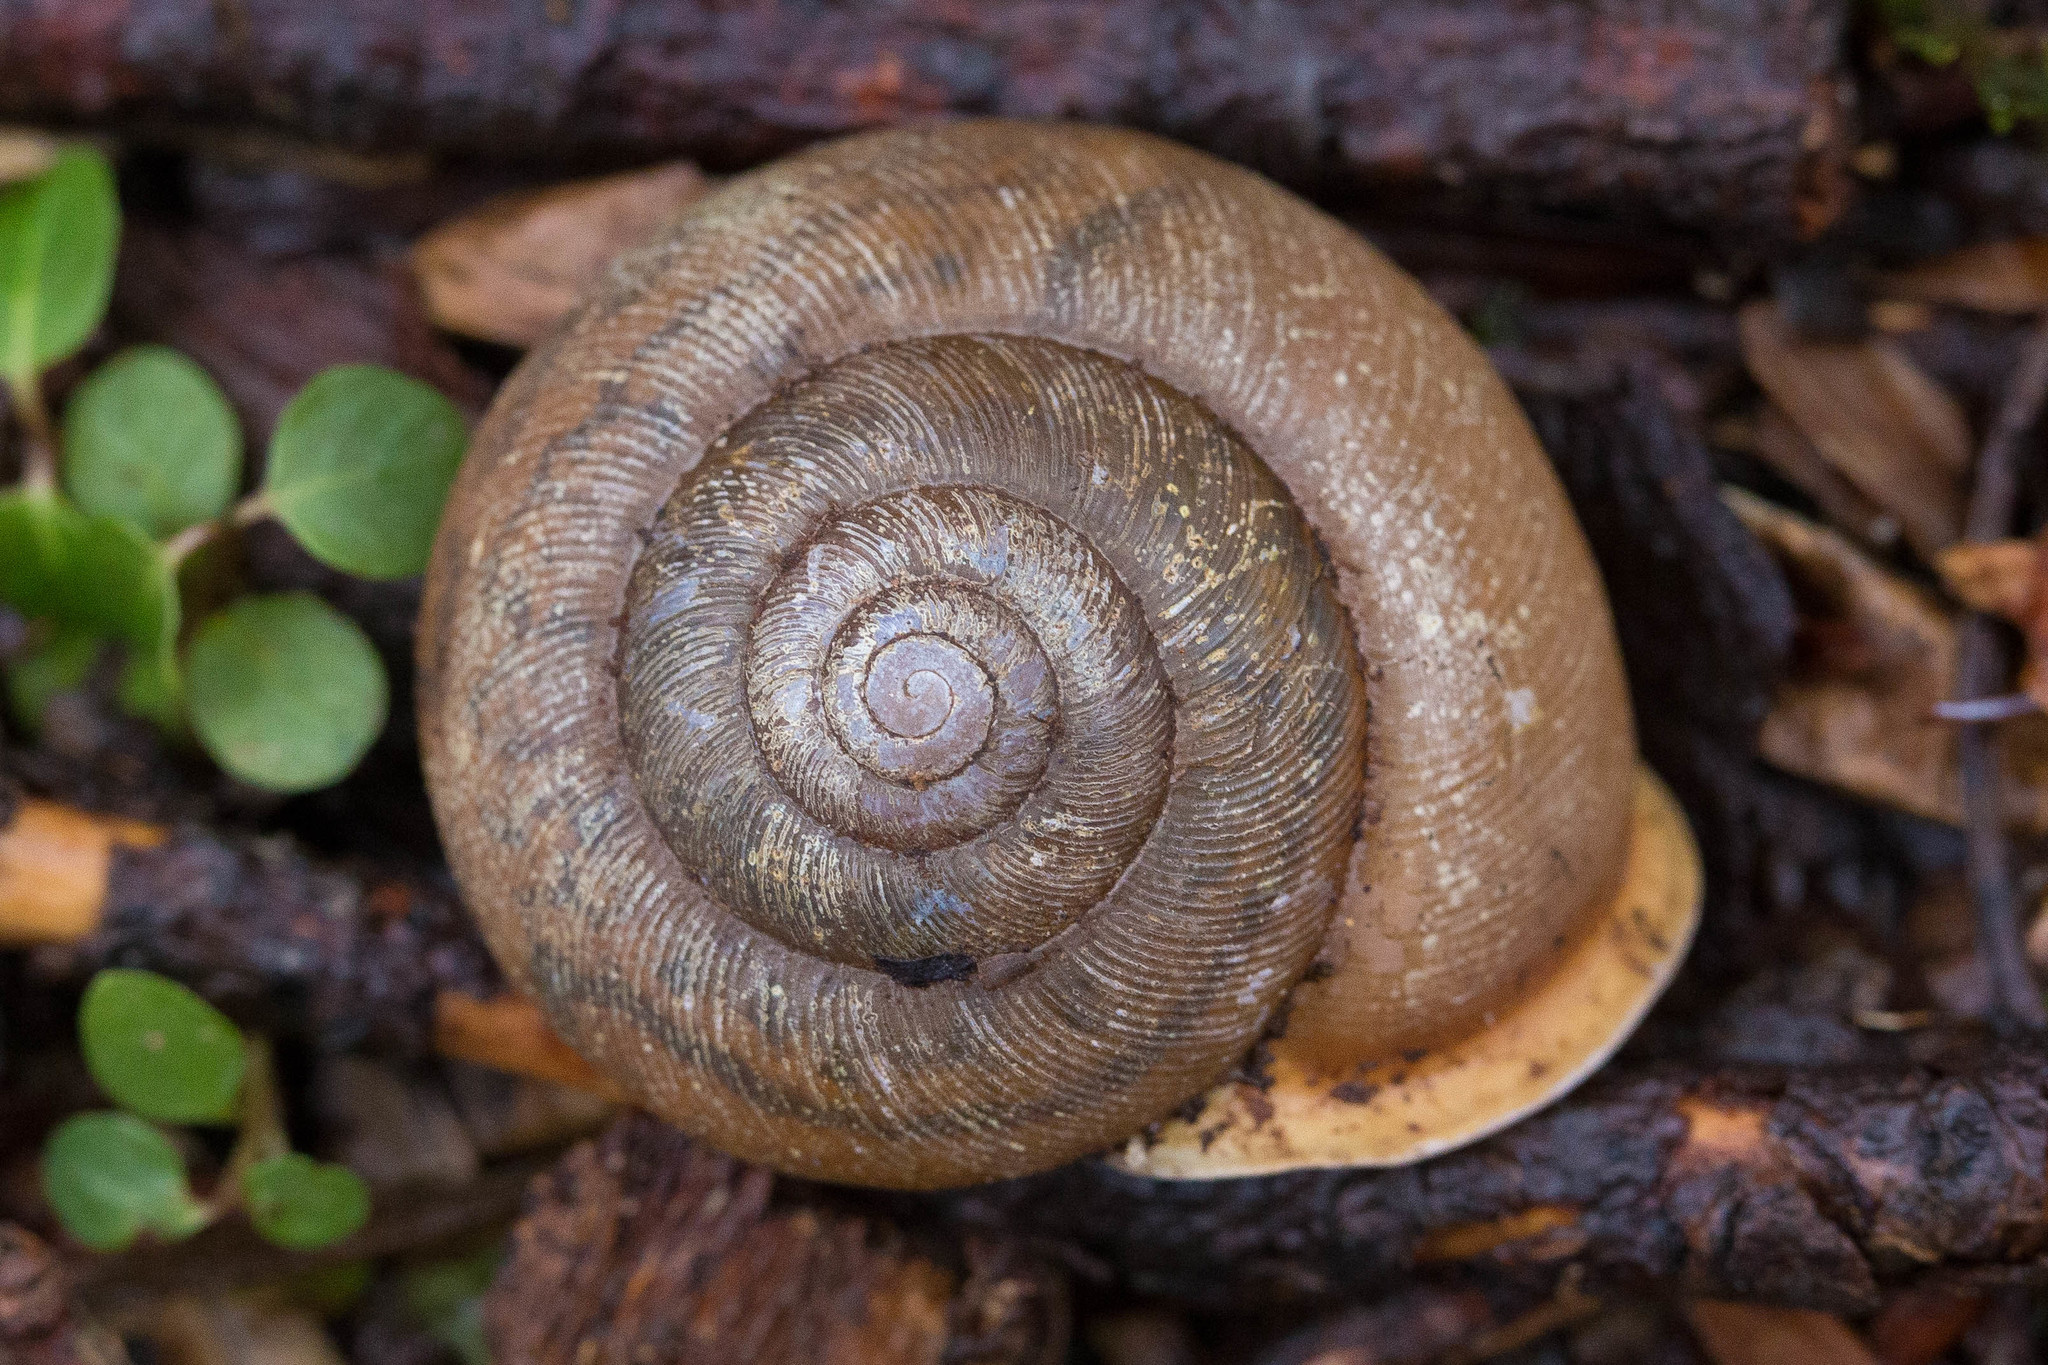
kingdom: Animalia
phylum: Mollusca
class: Gastropoda
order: Stylommatophora
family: Polygyridae
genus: Neohelix
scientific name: Neohelix albolabris
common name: Eastern whitelip
